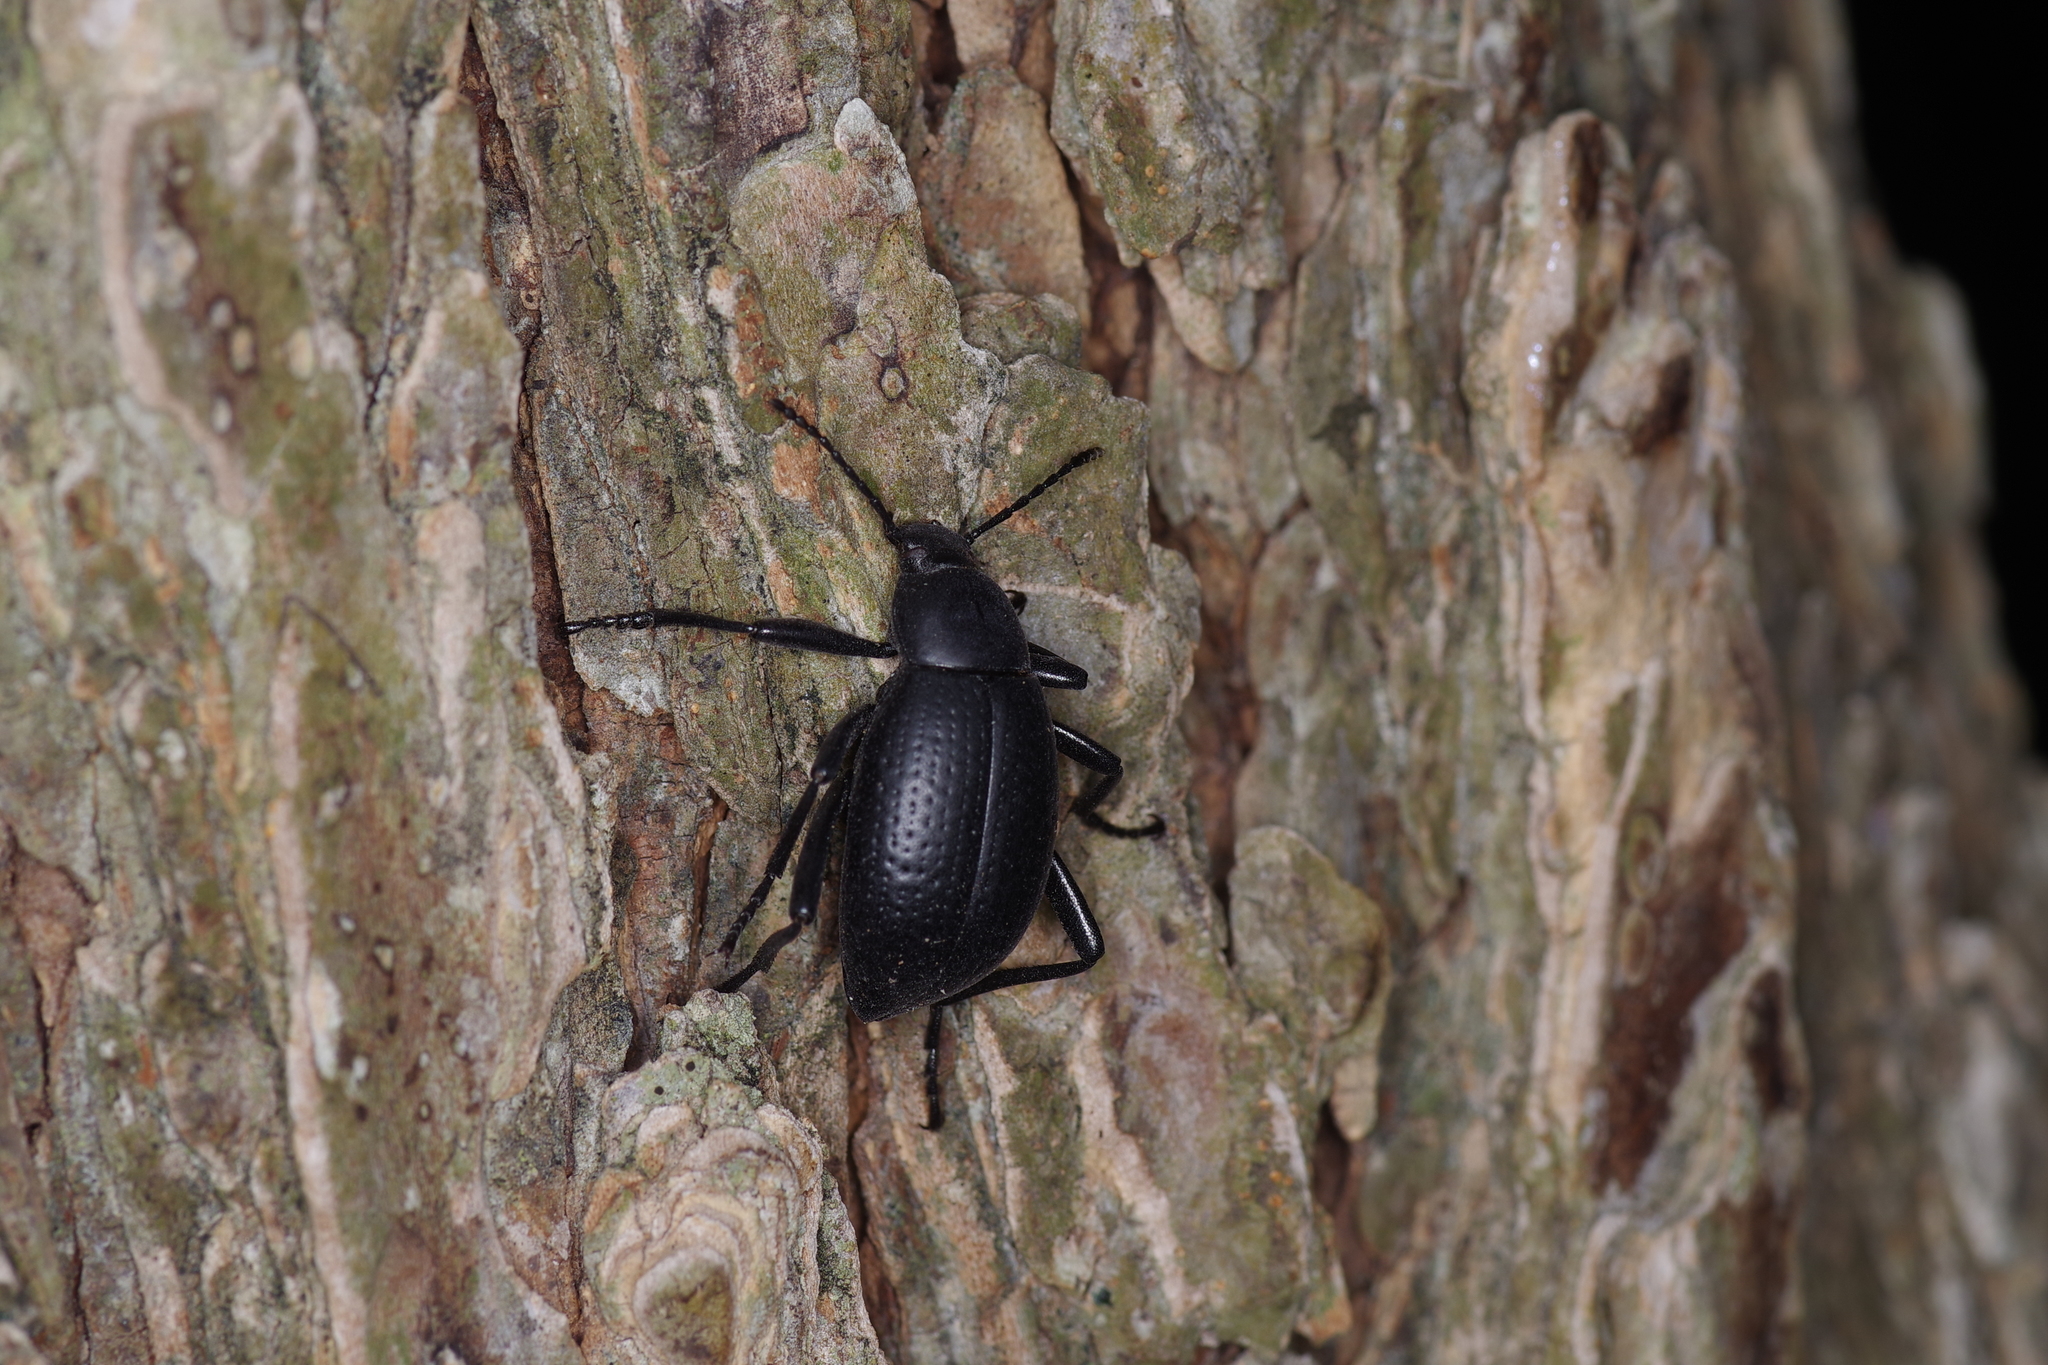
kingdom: Animalia
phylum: Arthropoda
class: Insecta
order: Coleoptera
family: Tenebrionidae
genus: Eleodes
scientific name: Eleodes goryi
